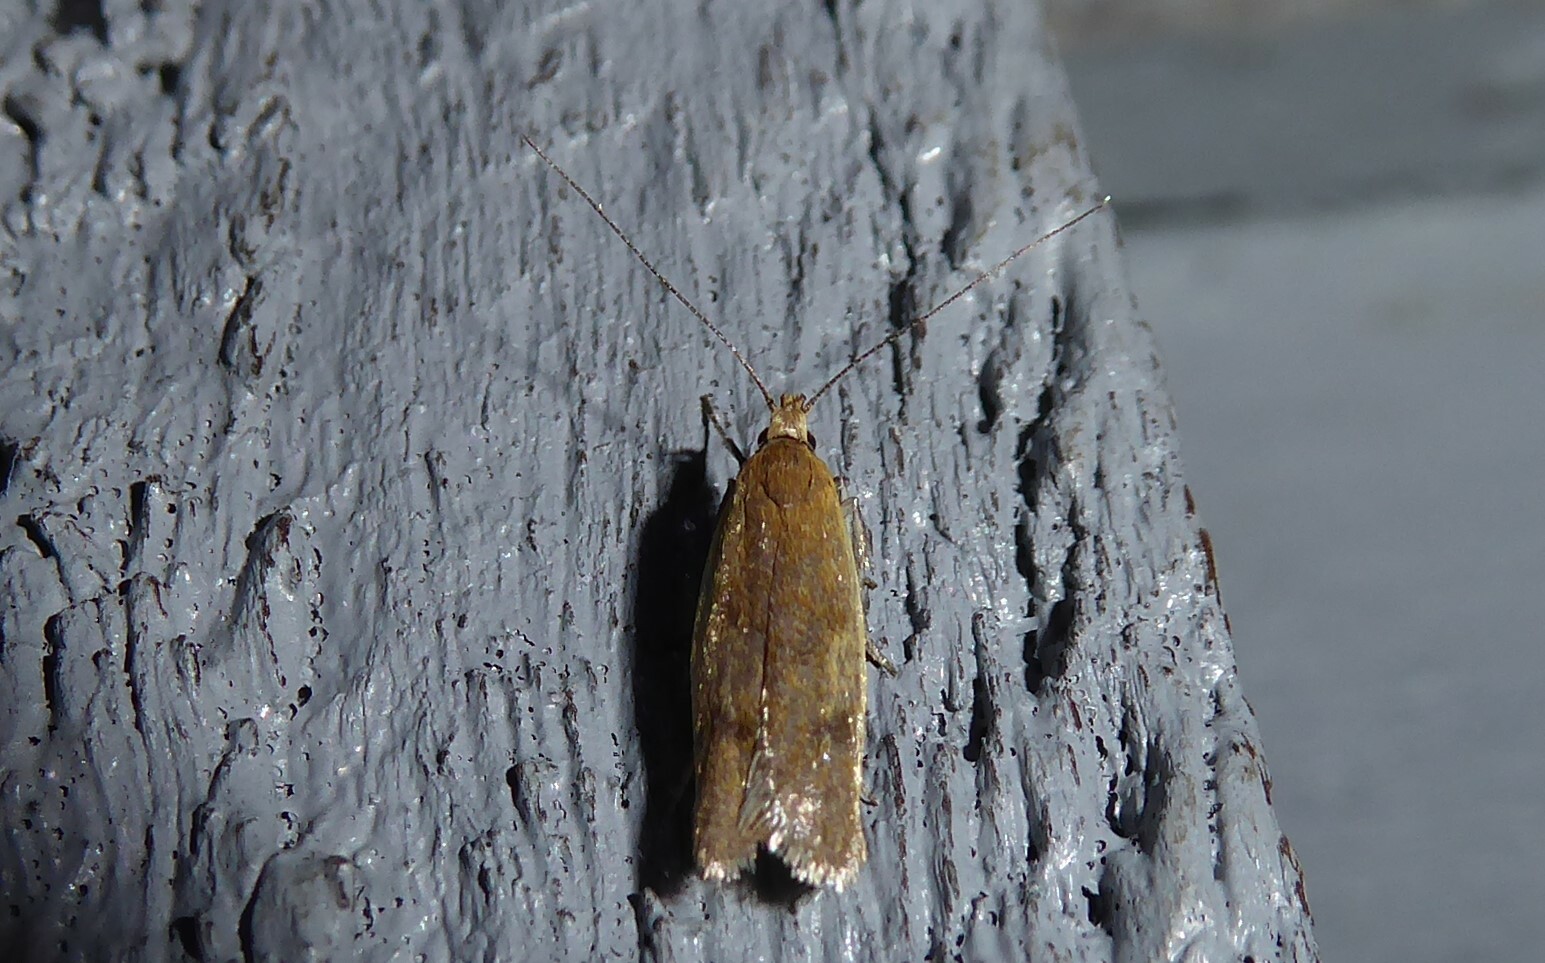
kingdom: Animalia
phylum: Arthropoda
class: Insecta
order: Lepidoptera
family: Oecophoridae
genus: Gymnobathra
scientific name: Gymnobathra parca
